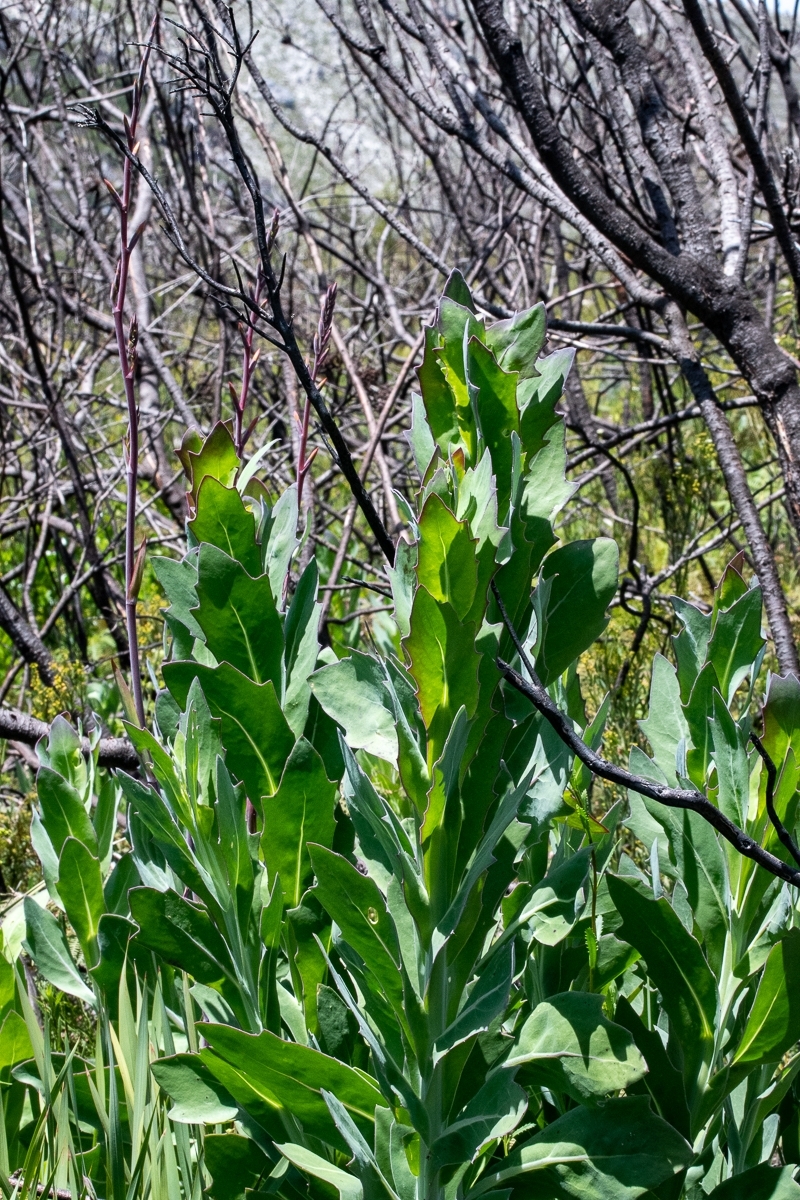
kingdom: Plantae
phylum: Tracheophyta
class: Magnoliopsida
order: Asterales
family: Asteraceae
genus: Othonna
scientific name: Othonna quinquedentata
